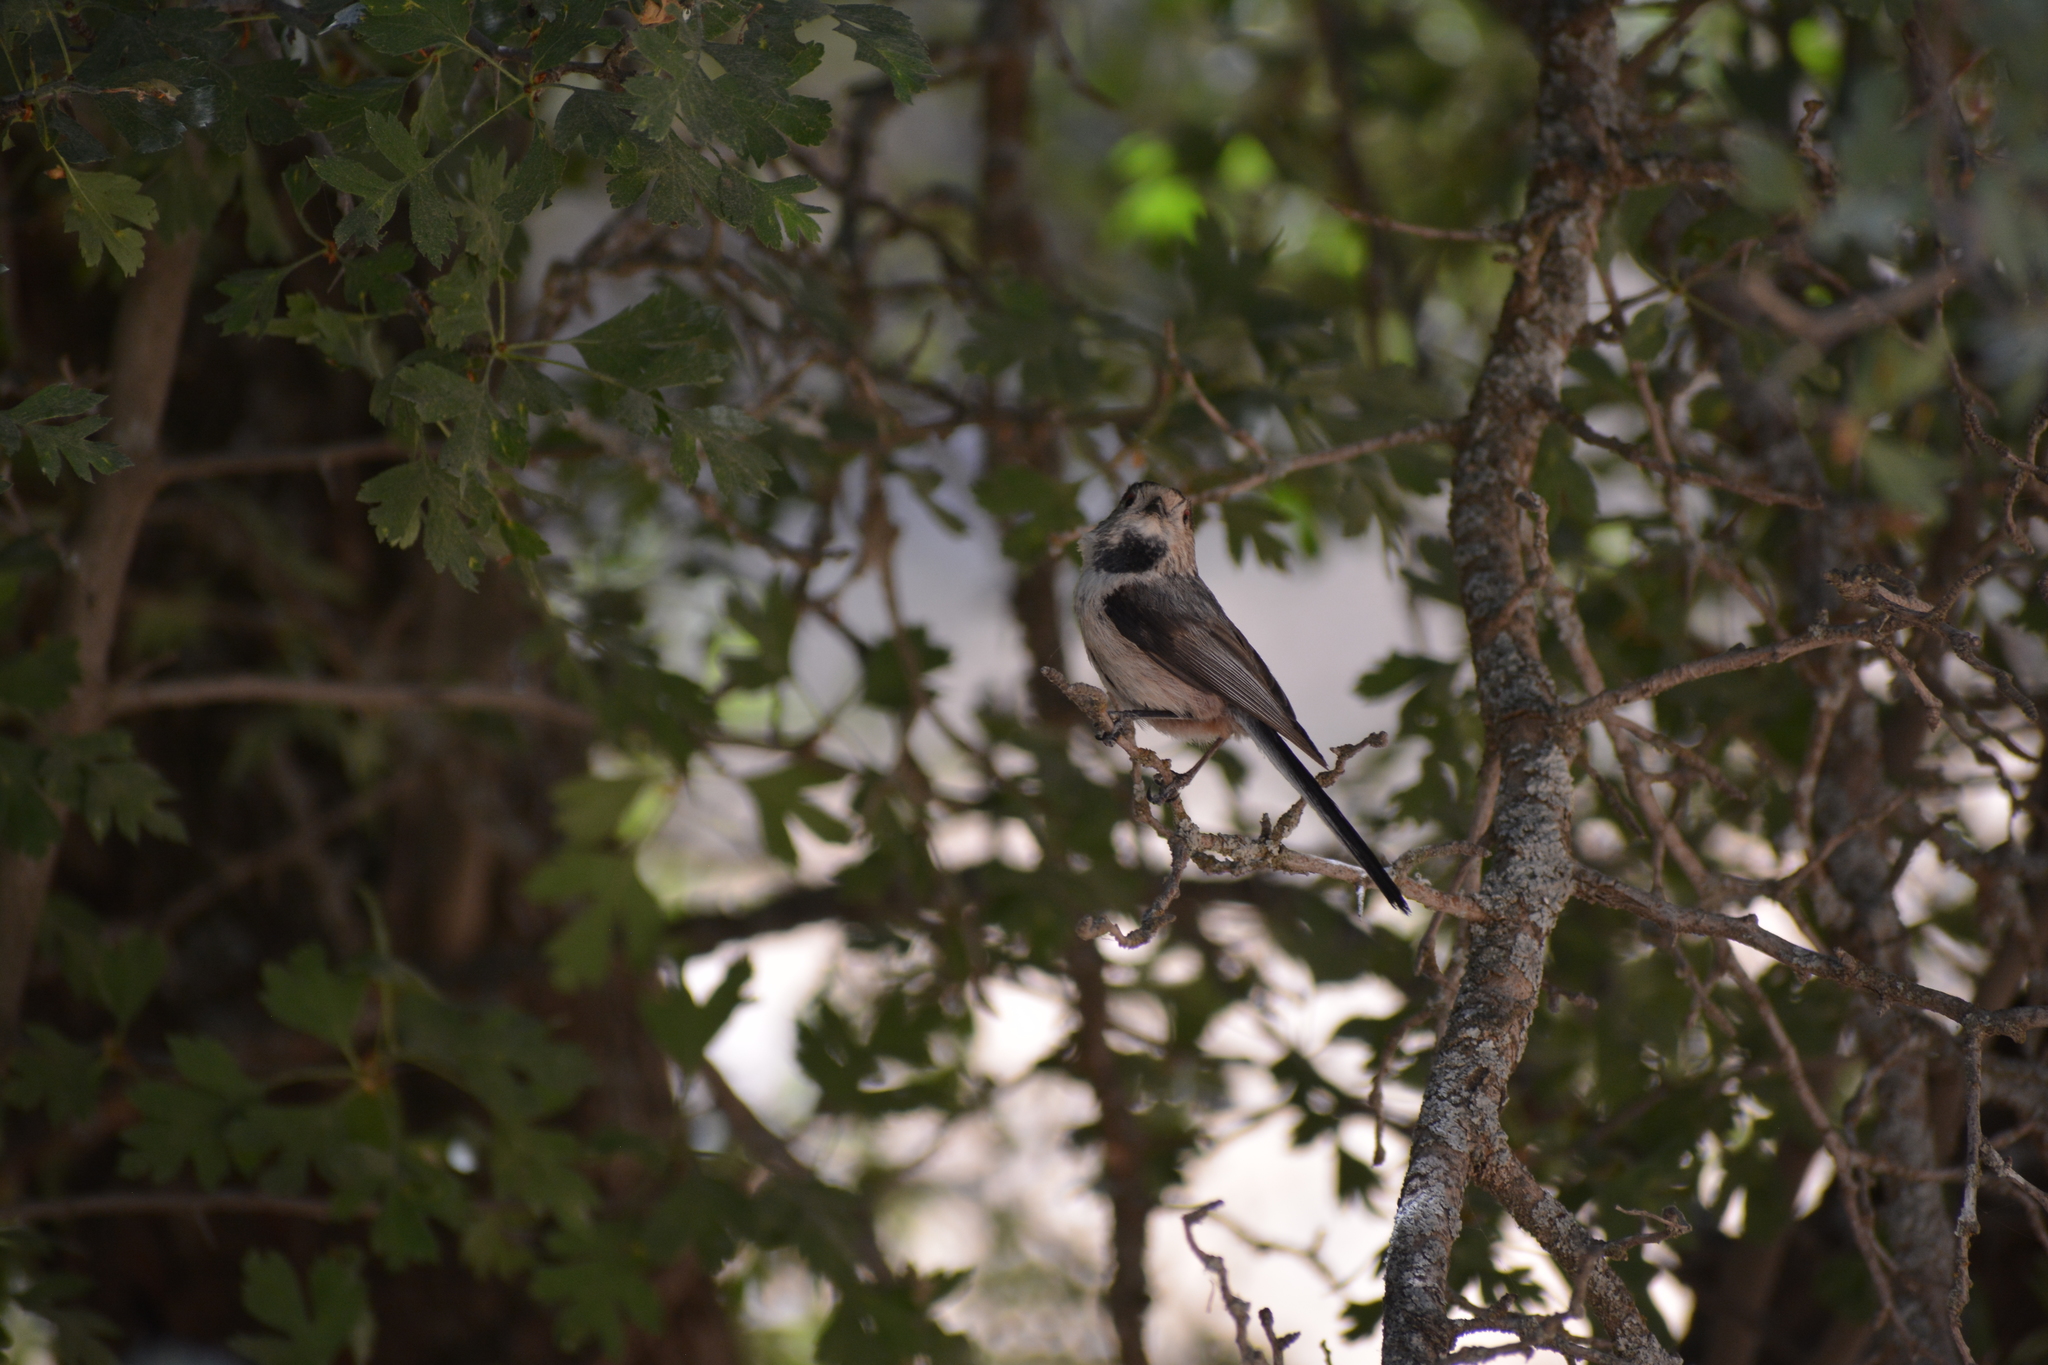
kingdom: Animalia
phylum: Chordata
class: Aves
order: Passeriformes
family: Aegithalidae
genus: Aegithalos
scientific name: Aegithalos caudatus
